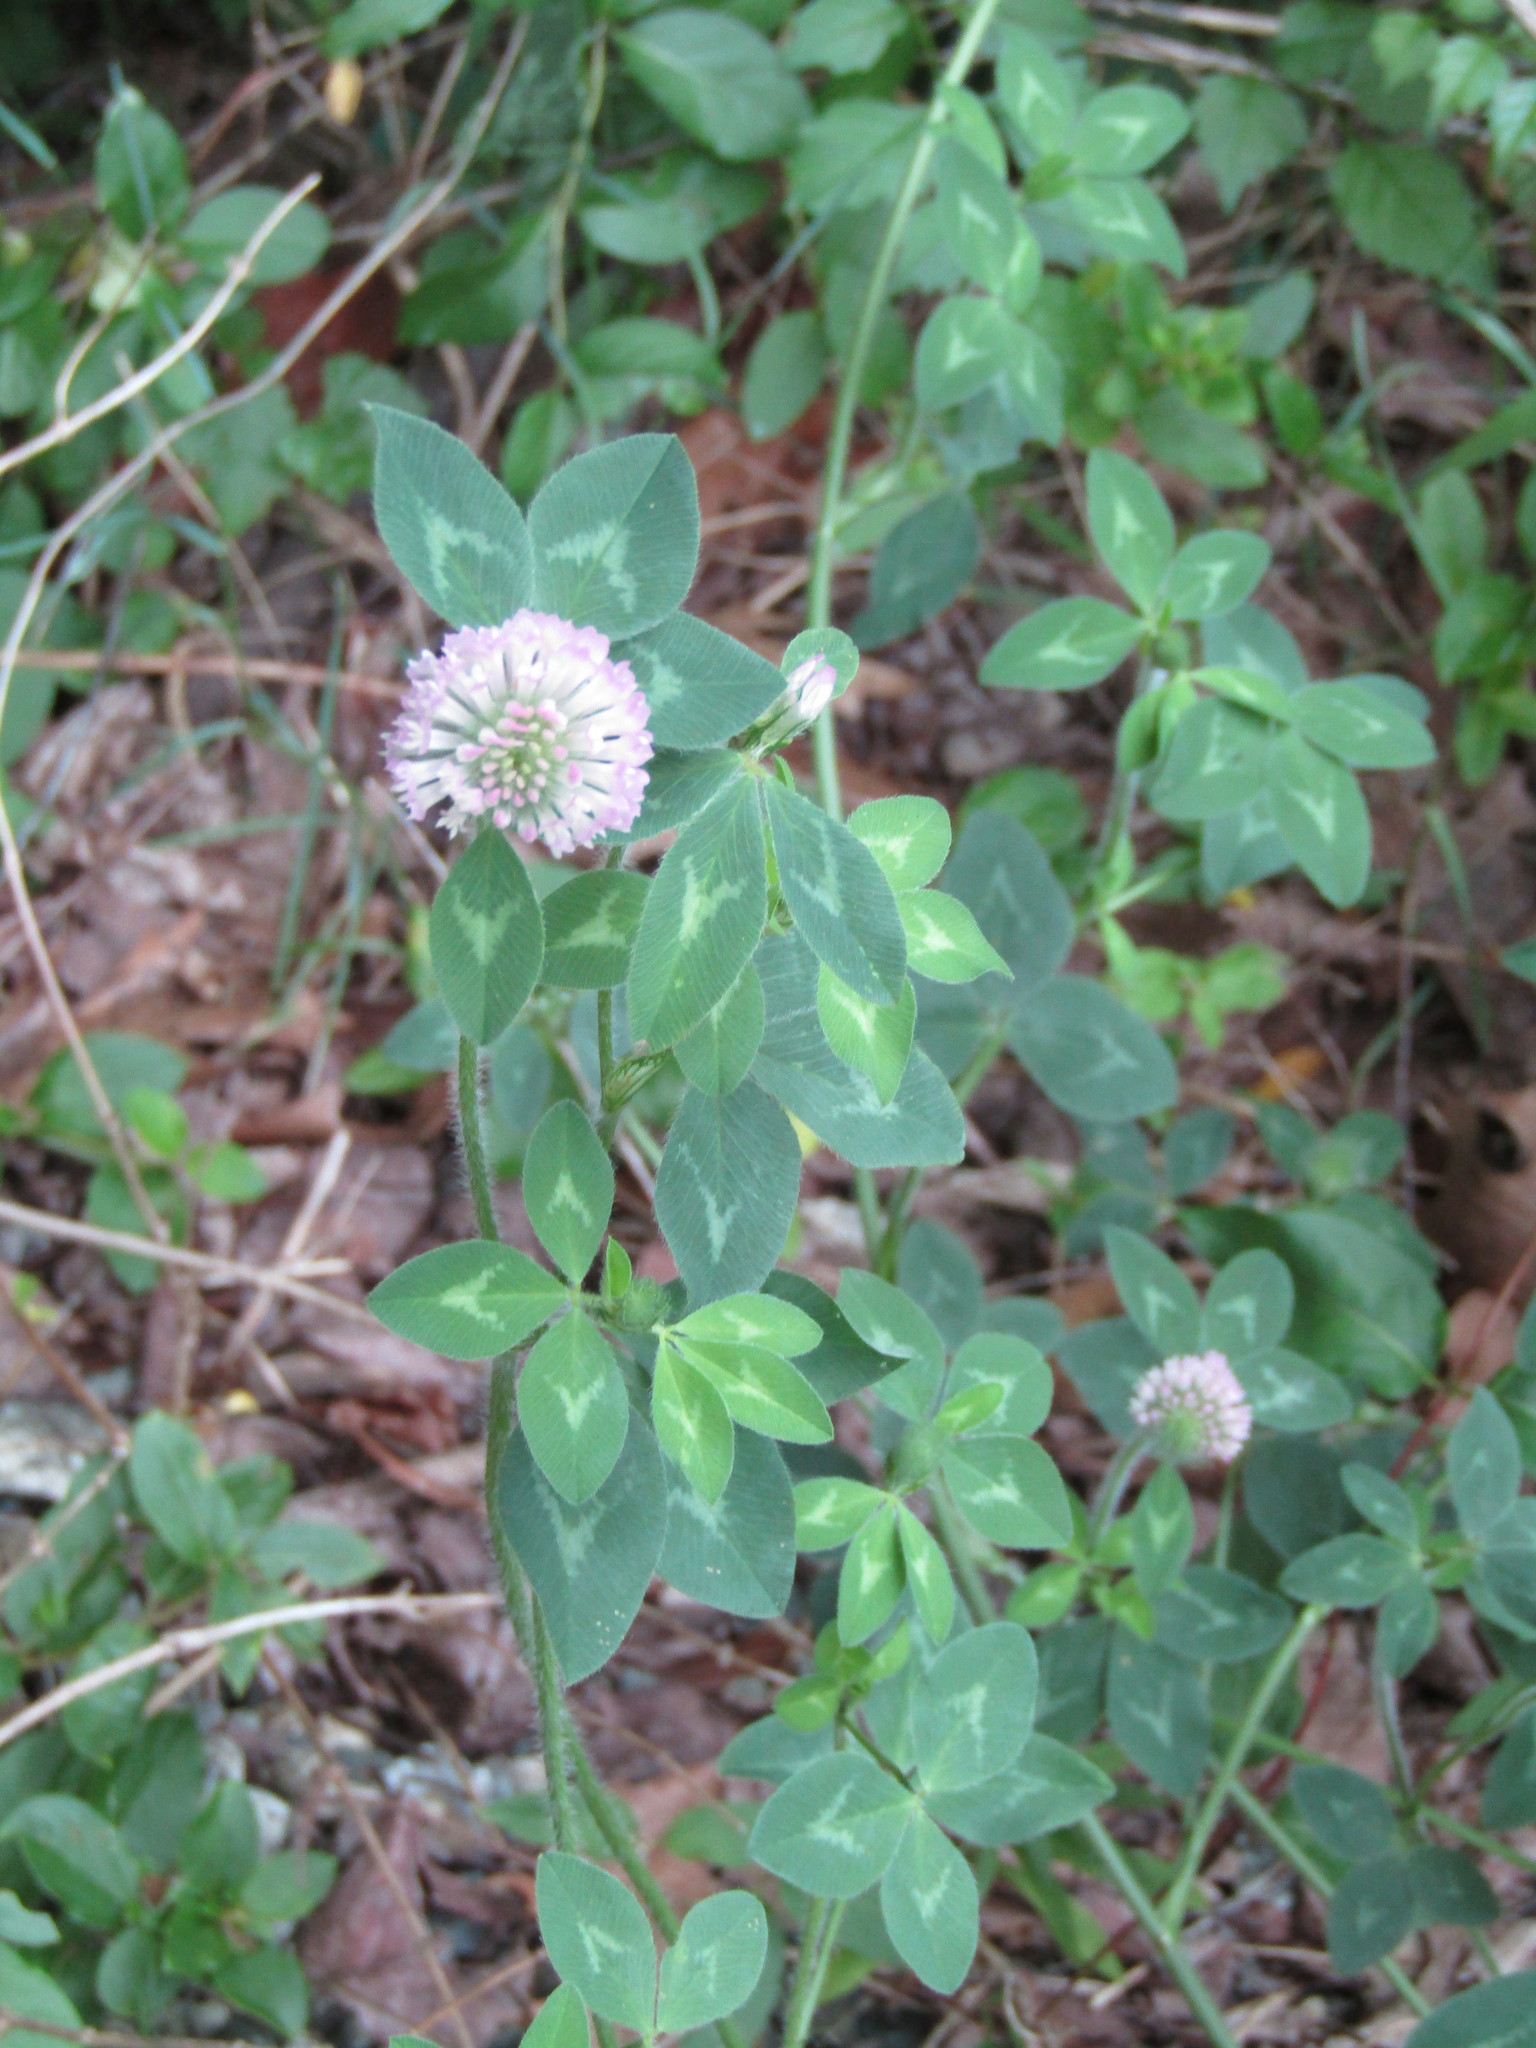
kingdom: Plantae
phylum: Tracheophyta
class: Magnoliopsida
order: Fabales
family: Fabaceae
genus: Trifolium
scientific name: Trifolium pratense
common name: Red clover
